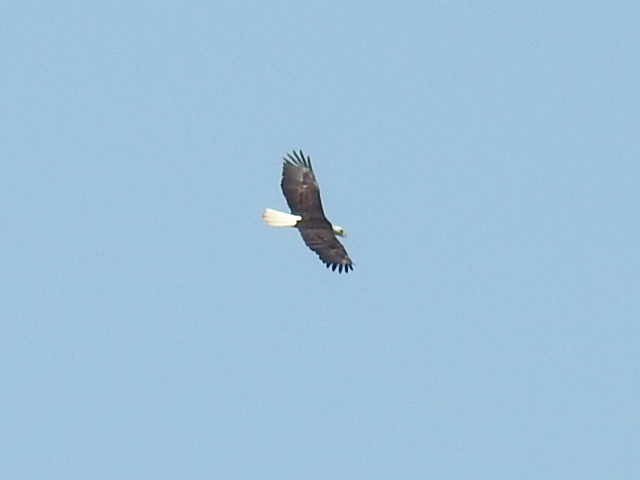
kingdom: Animalia
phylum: Chordata
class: Aves
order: Accipitriformes
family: Accipitridae
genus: Haliaeetus
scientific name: Haliaeetus leucocephalus
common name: Bald eagle
